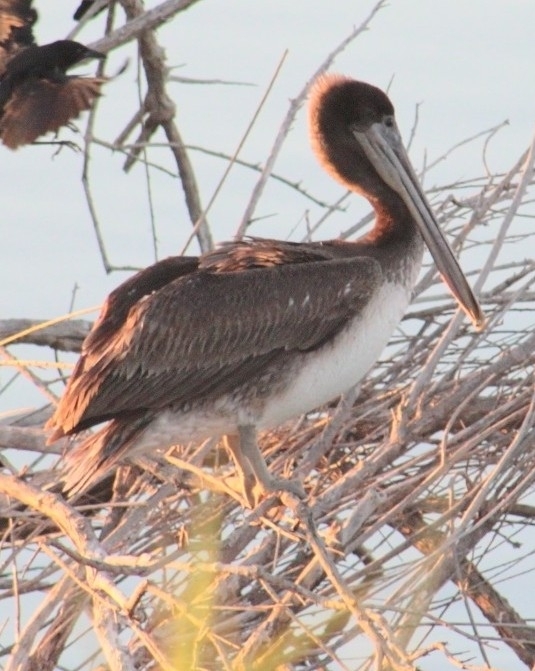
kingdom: Animalia
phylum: Chordata
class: Aves
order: Pelecaniformes
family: Pelecanidae
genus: Pelecanus
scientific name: Pelecanus occidentalis
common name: Brown pelican
